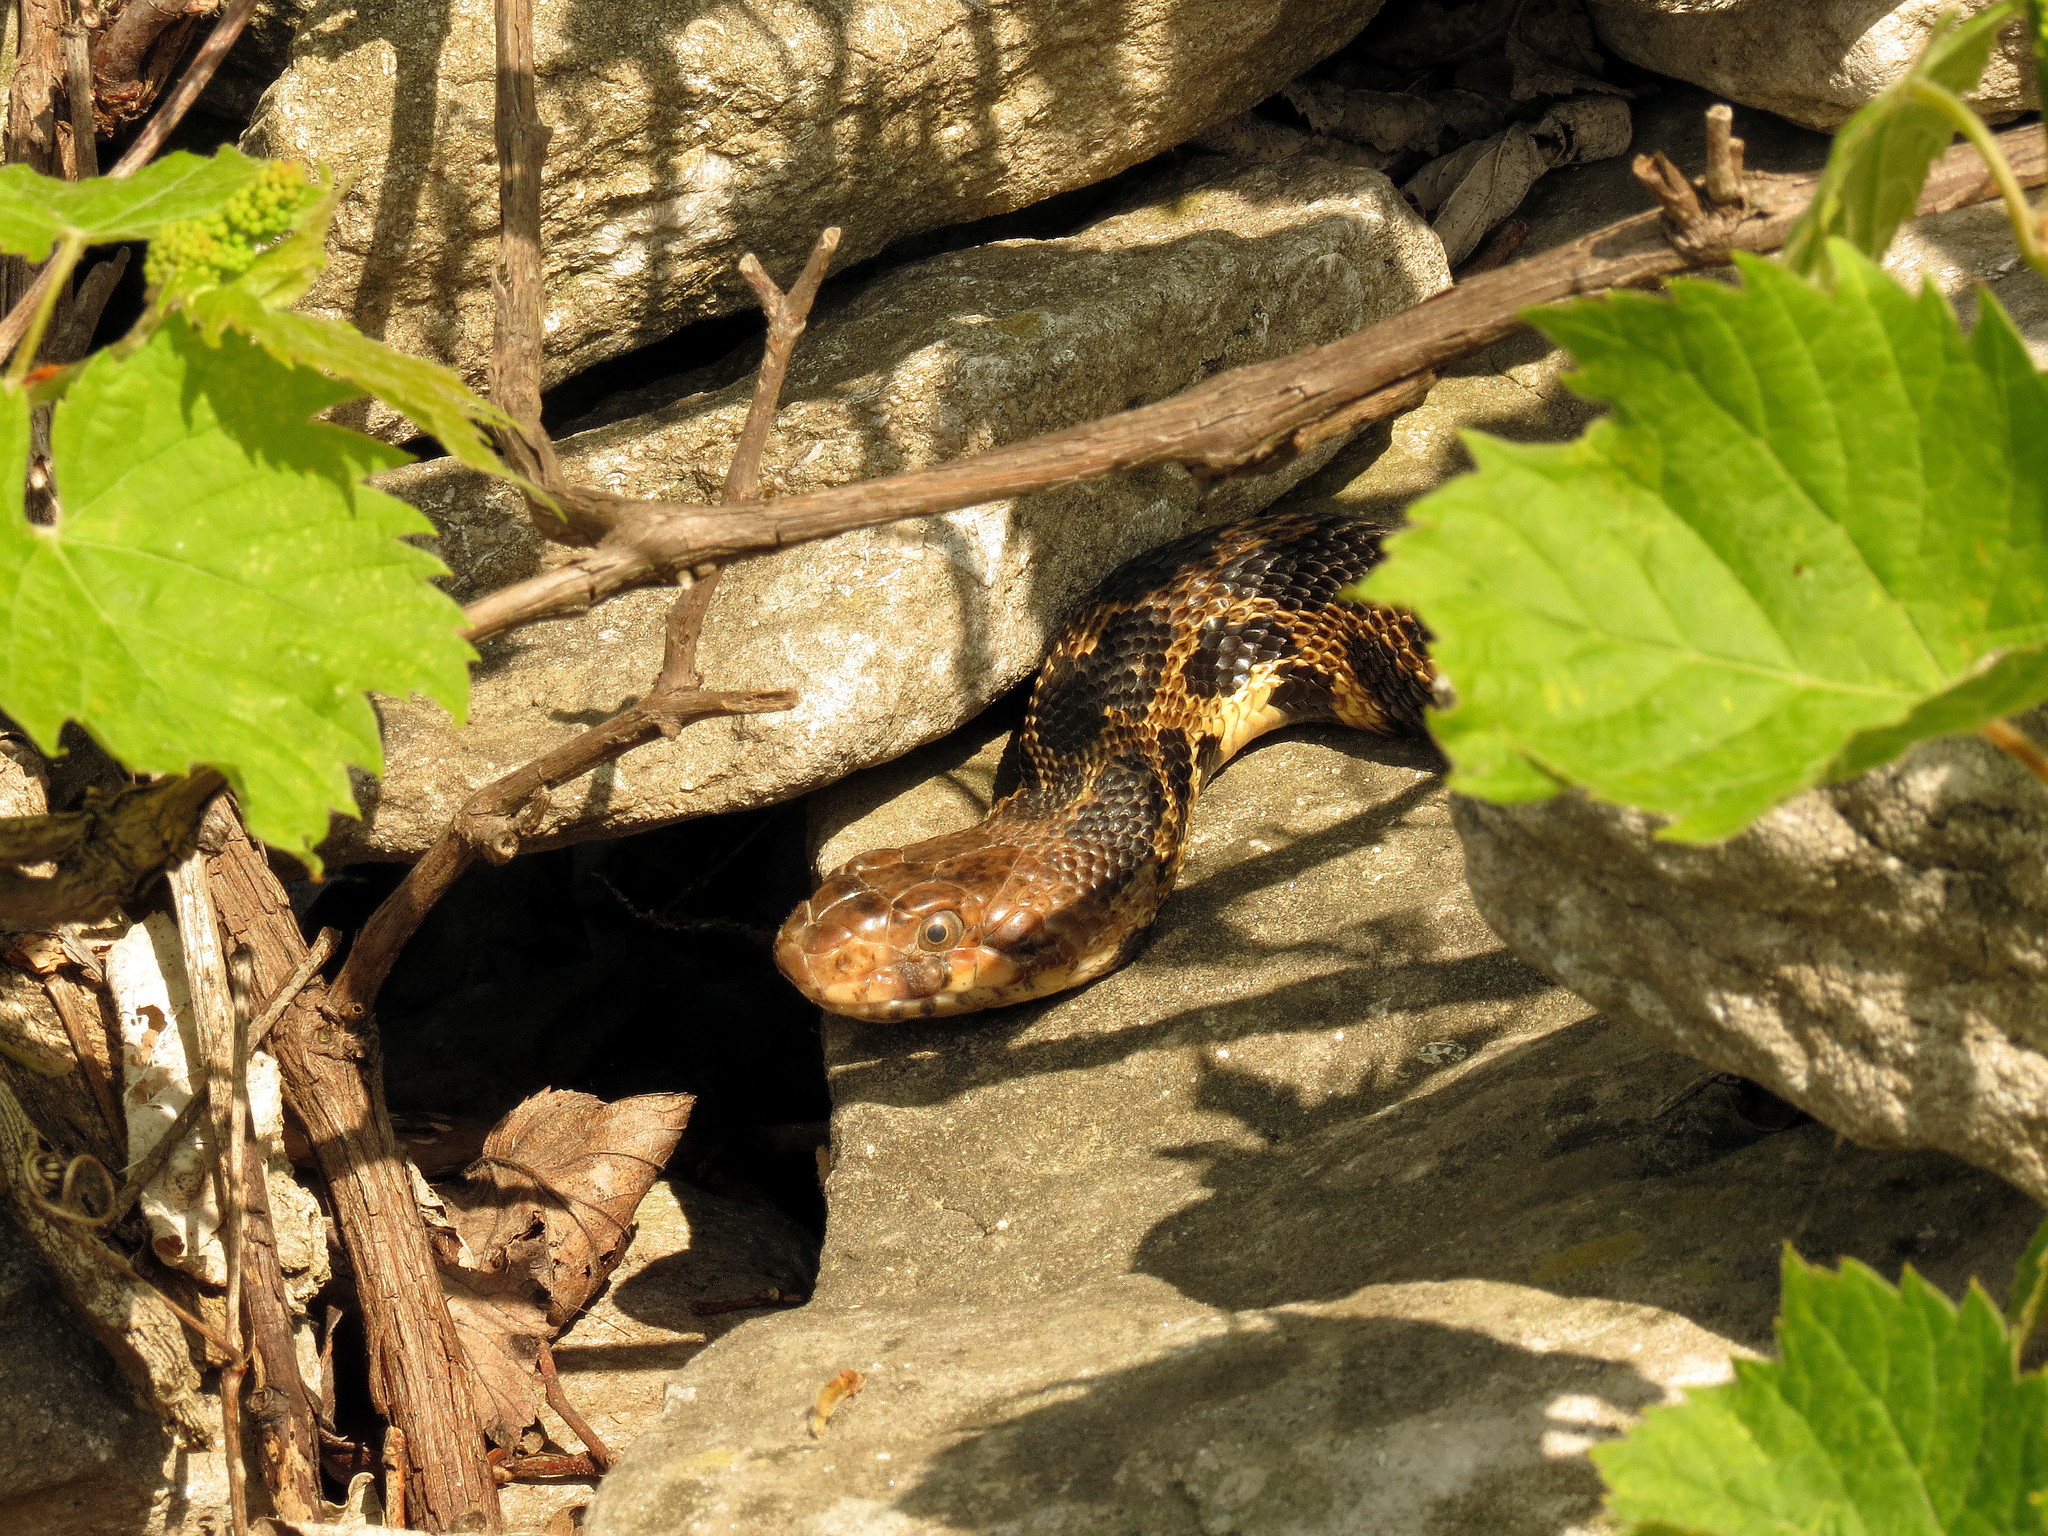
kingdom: Animalia
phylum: Chordata
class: Squamata
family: Colubridae
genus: Pantherophis
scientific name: Pantherophis vulpinus
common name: Eastern fox snake
